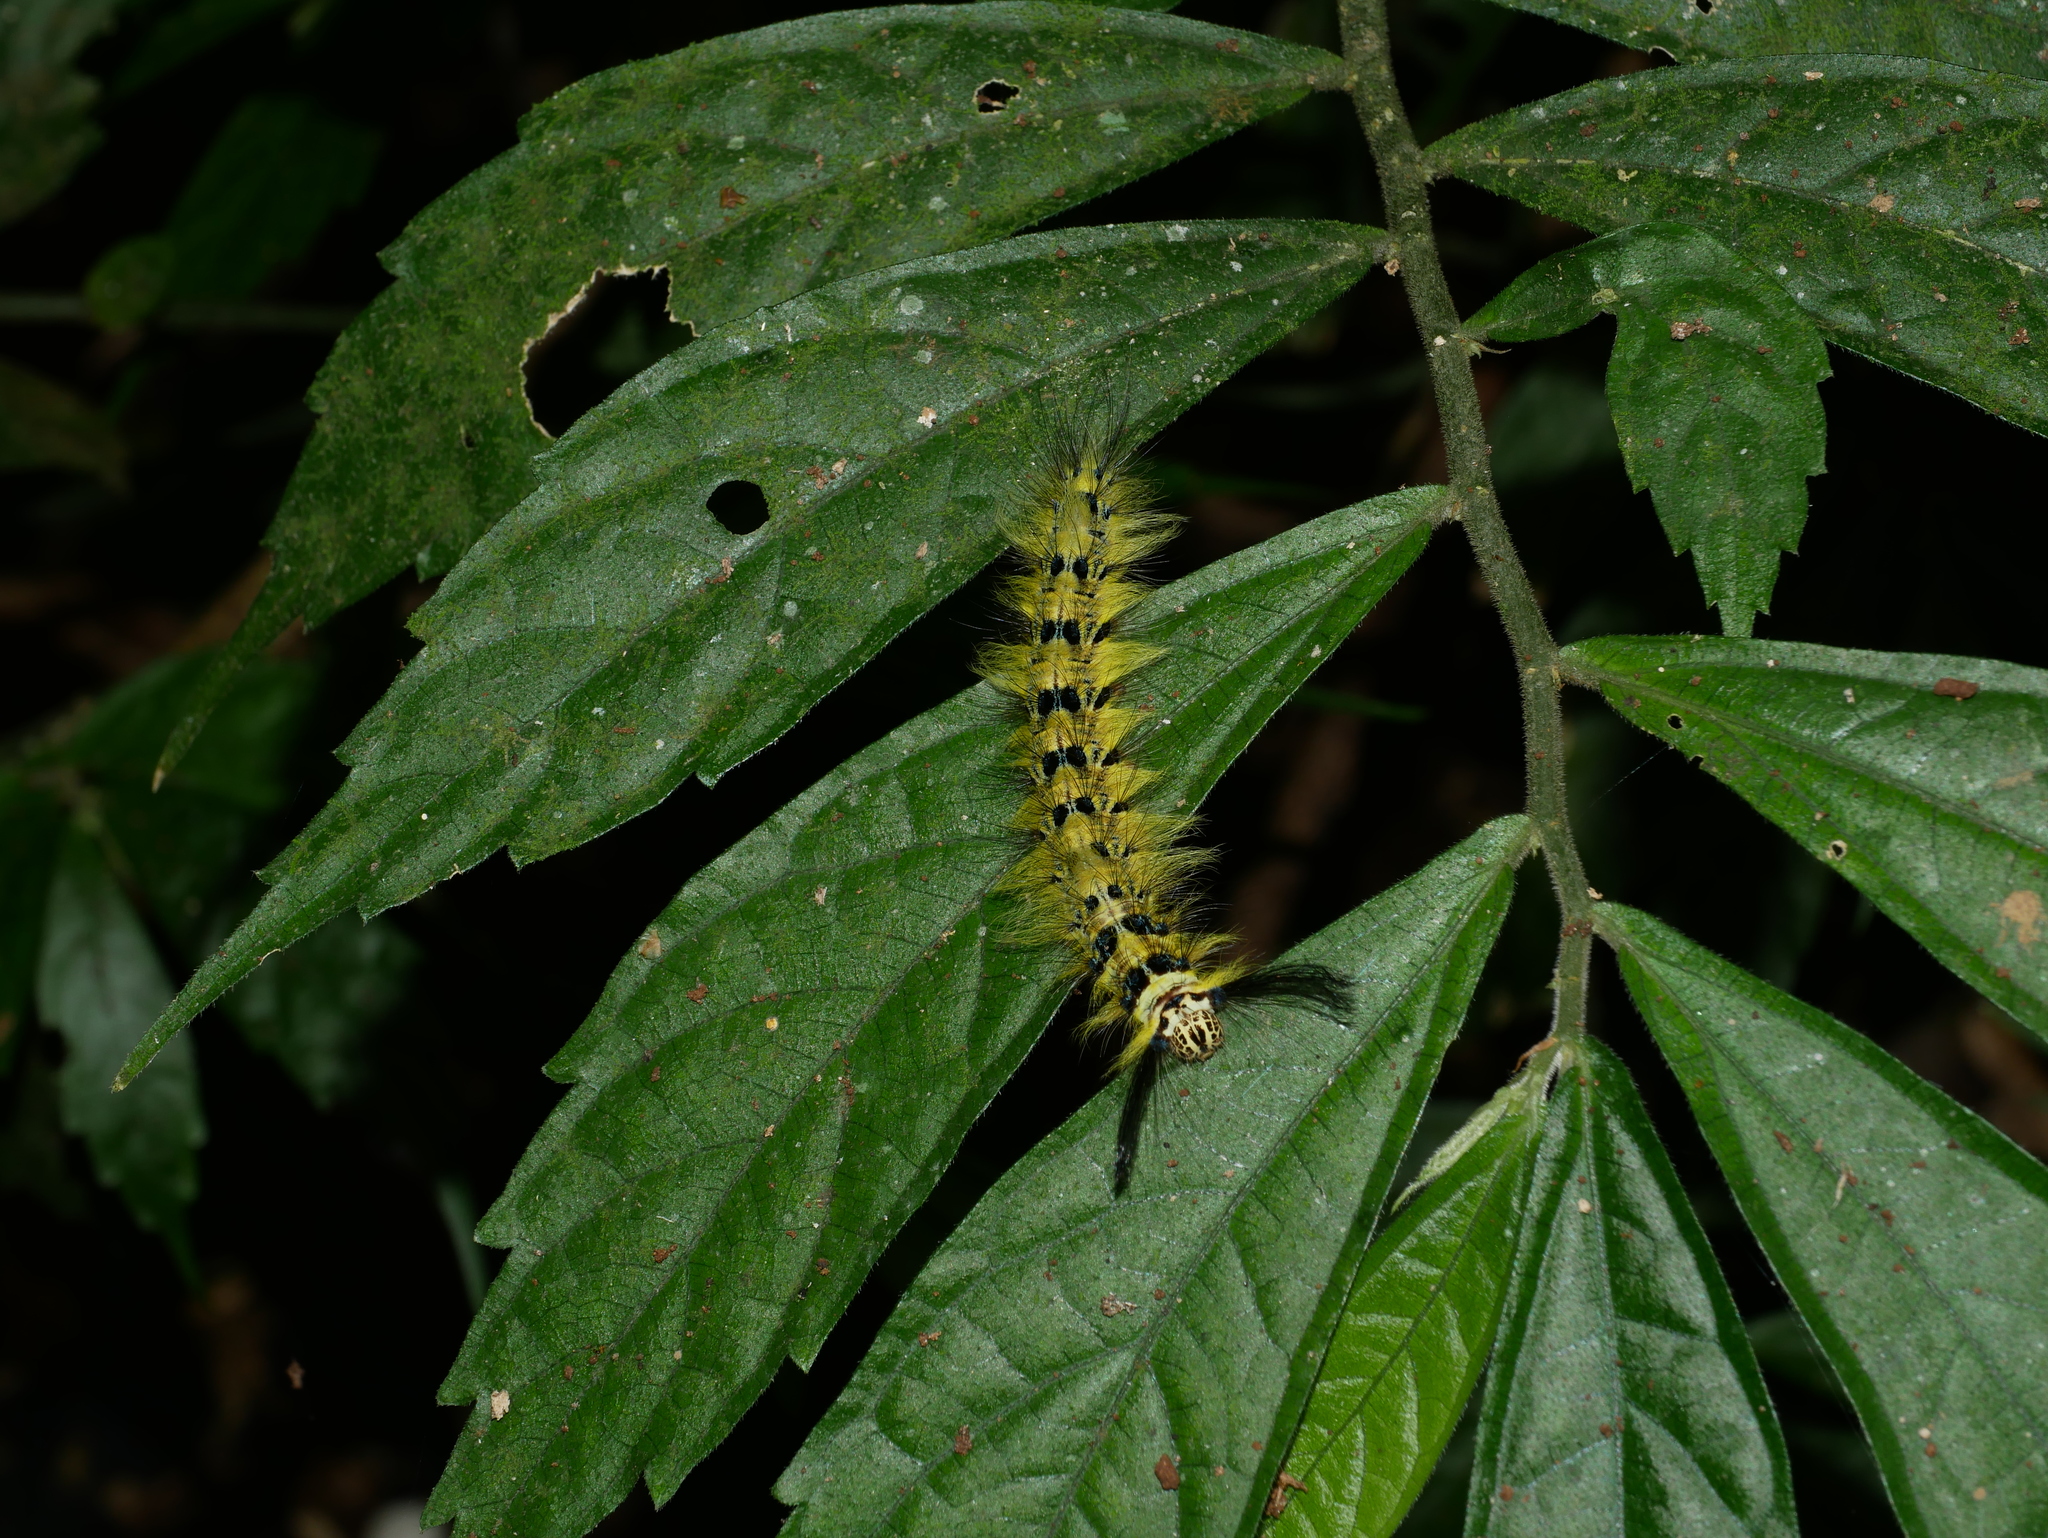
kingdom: Animalia
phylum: Arthropoda
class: Insecta
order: Lepidoptera
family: Lasiocampidae
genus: Trabala
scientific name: Trabala vishnou
